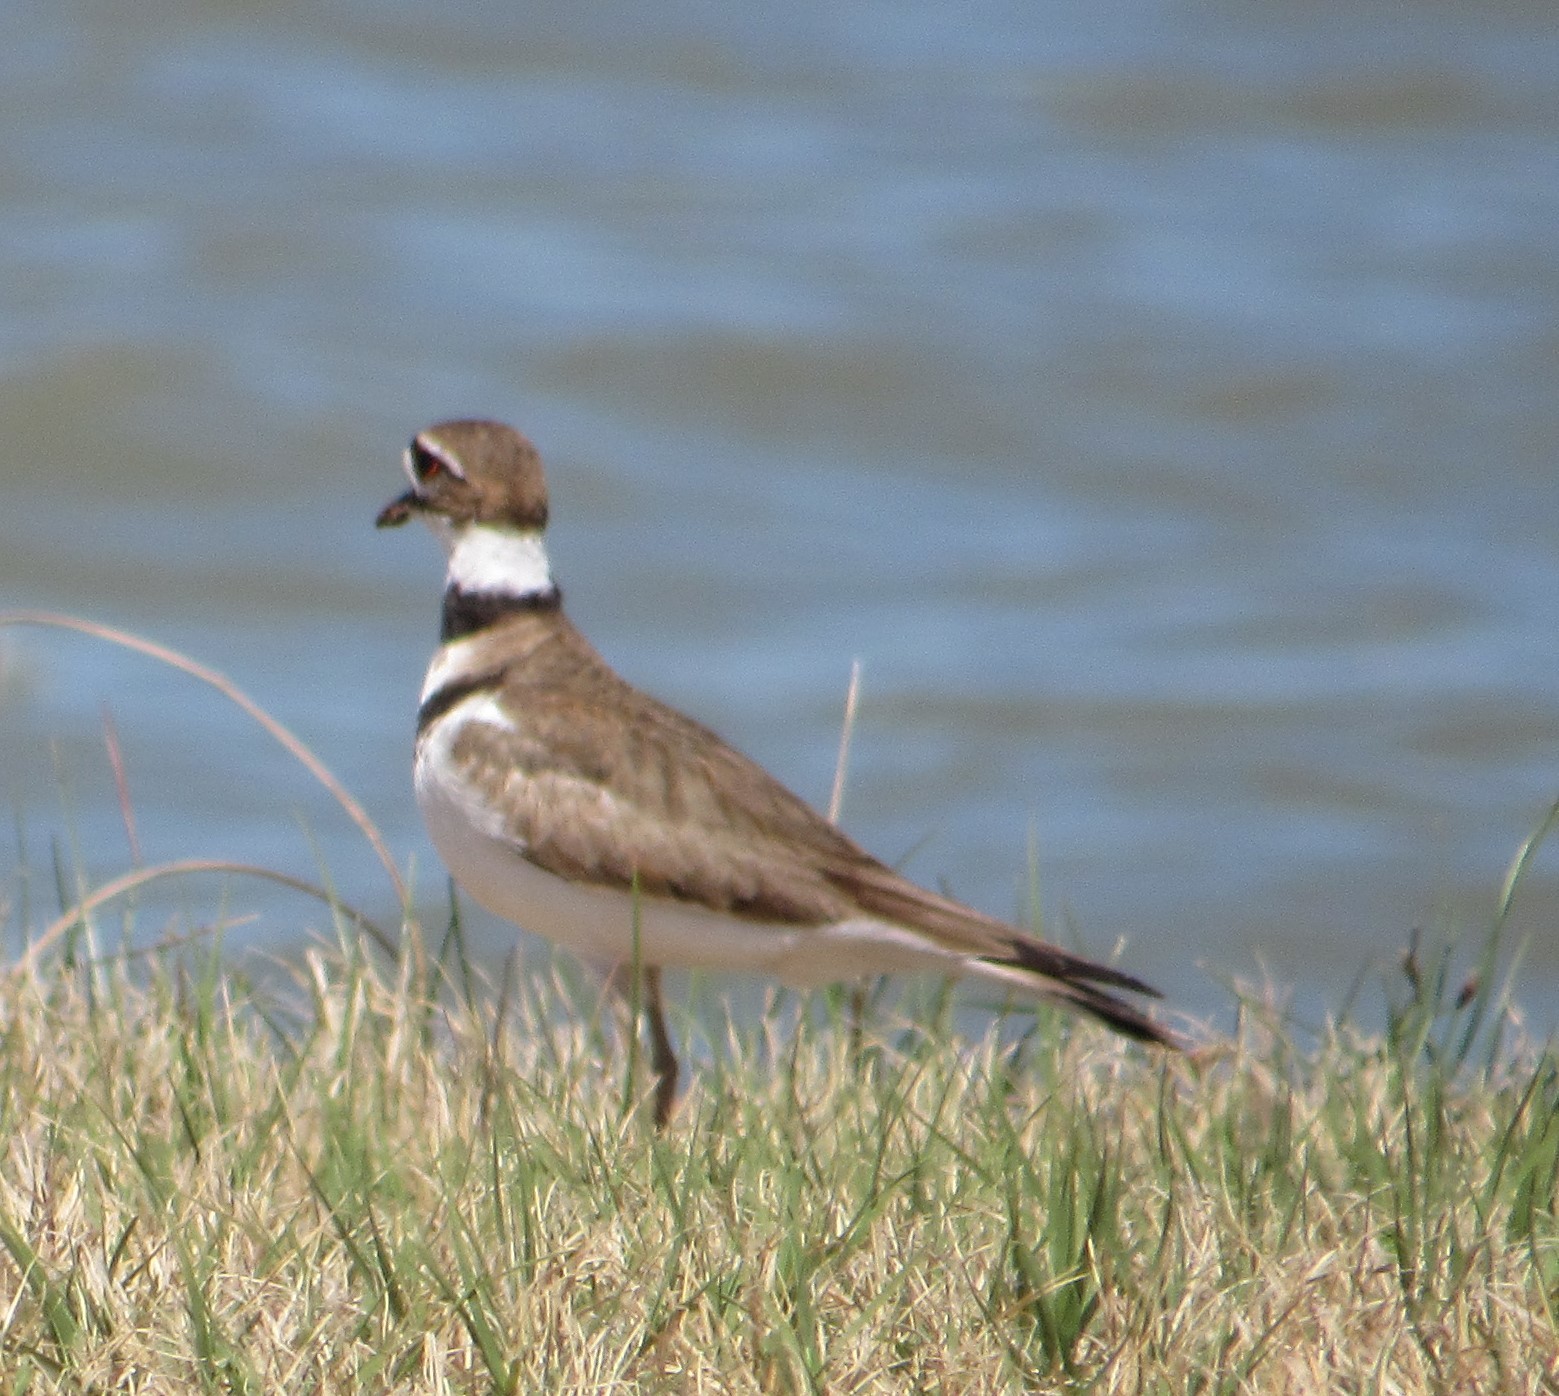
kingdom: Animalia
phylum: Chordata
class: Aves
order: Charadriiformes
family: Charadriidae
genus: Charadrius
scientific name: Charadrius vociferus
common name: Killdeer
